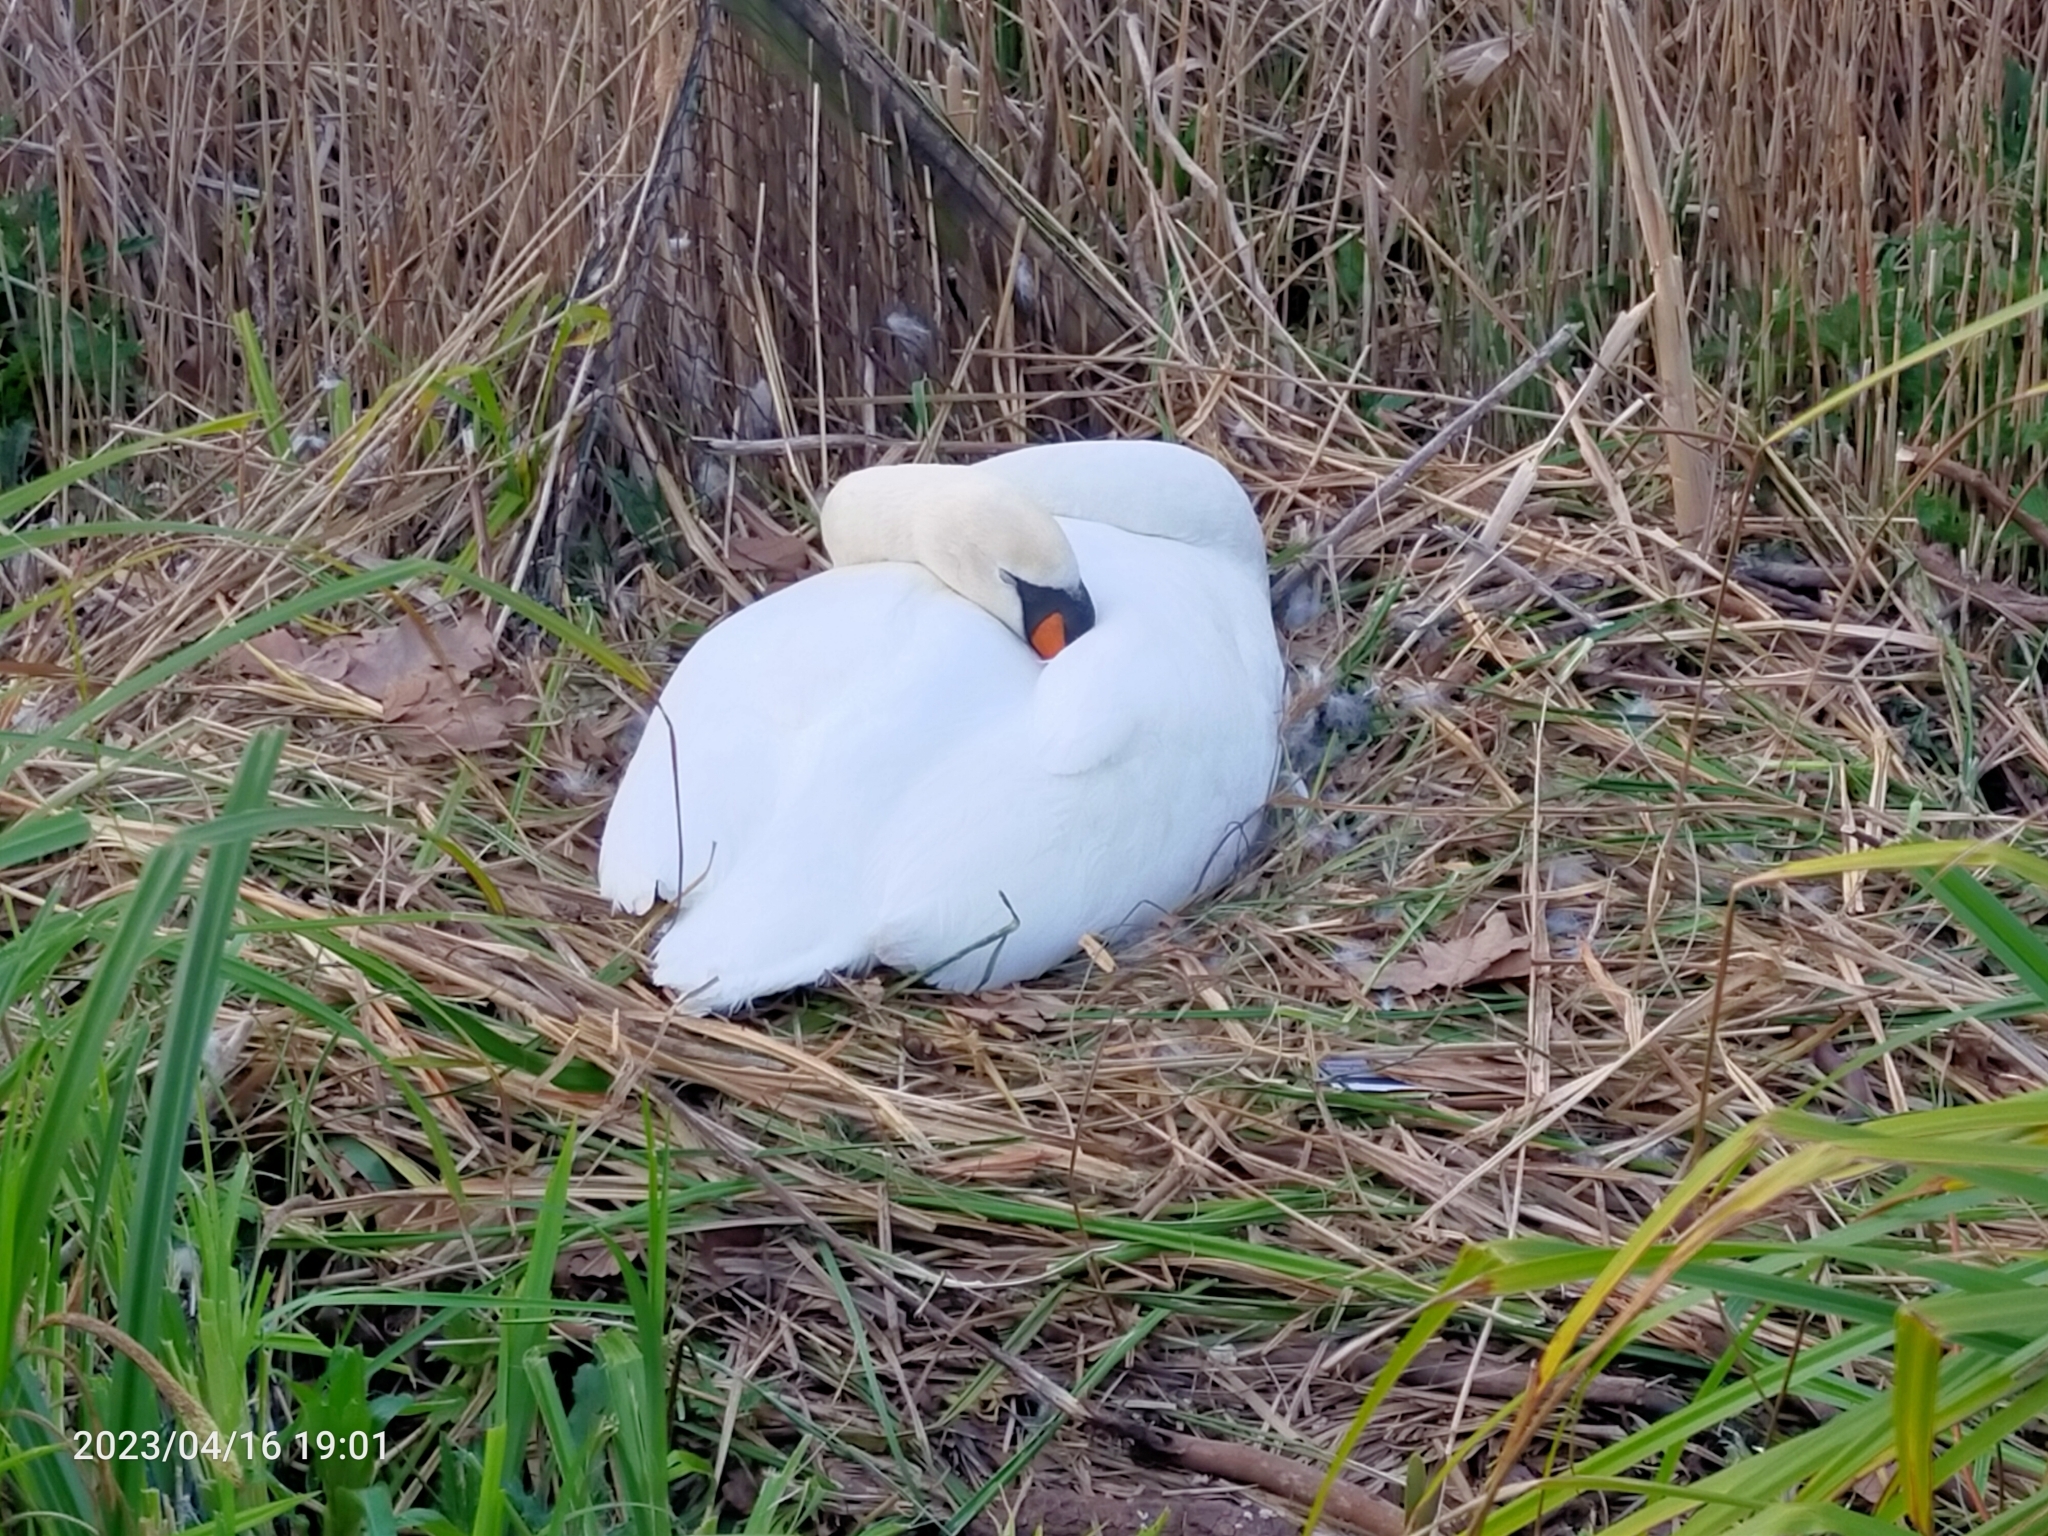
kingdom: Animalia
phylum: Chordata
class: Aves
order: Anseriformes
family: Anatidae
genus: Cygnus
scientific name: Cygnus olor
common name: Mute swan
